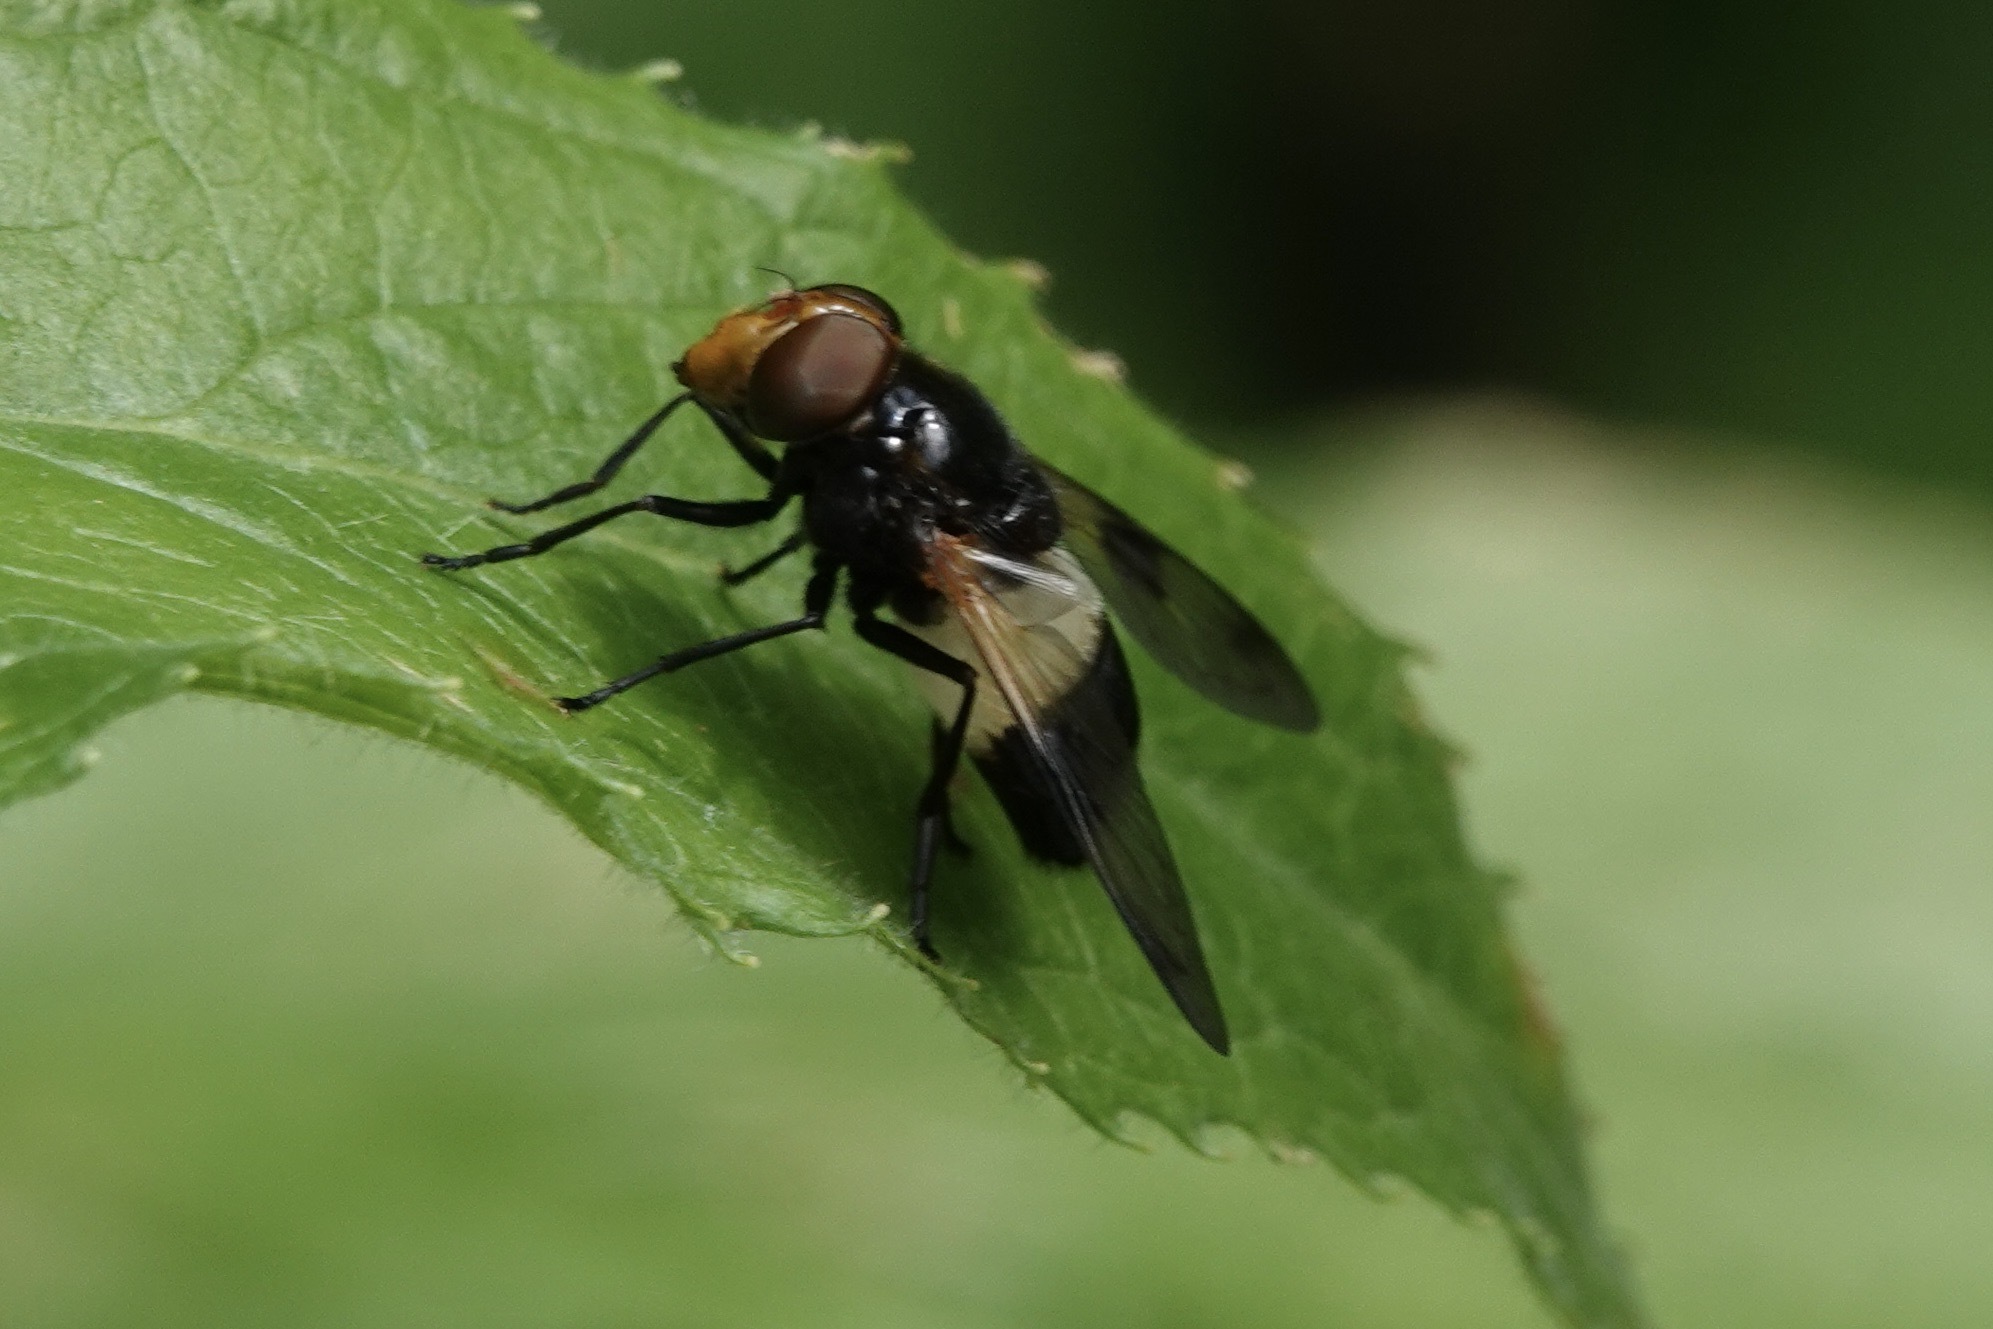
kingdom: Animalia
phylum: Arthropoda
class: Insecta
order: Diptera
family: Syrphidae
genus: Volucella
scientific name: Volucella pellucens
